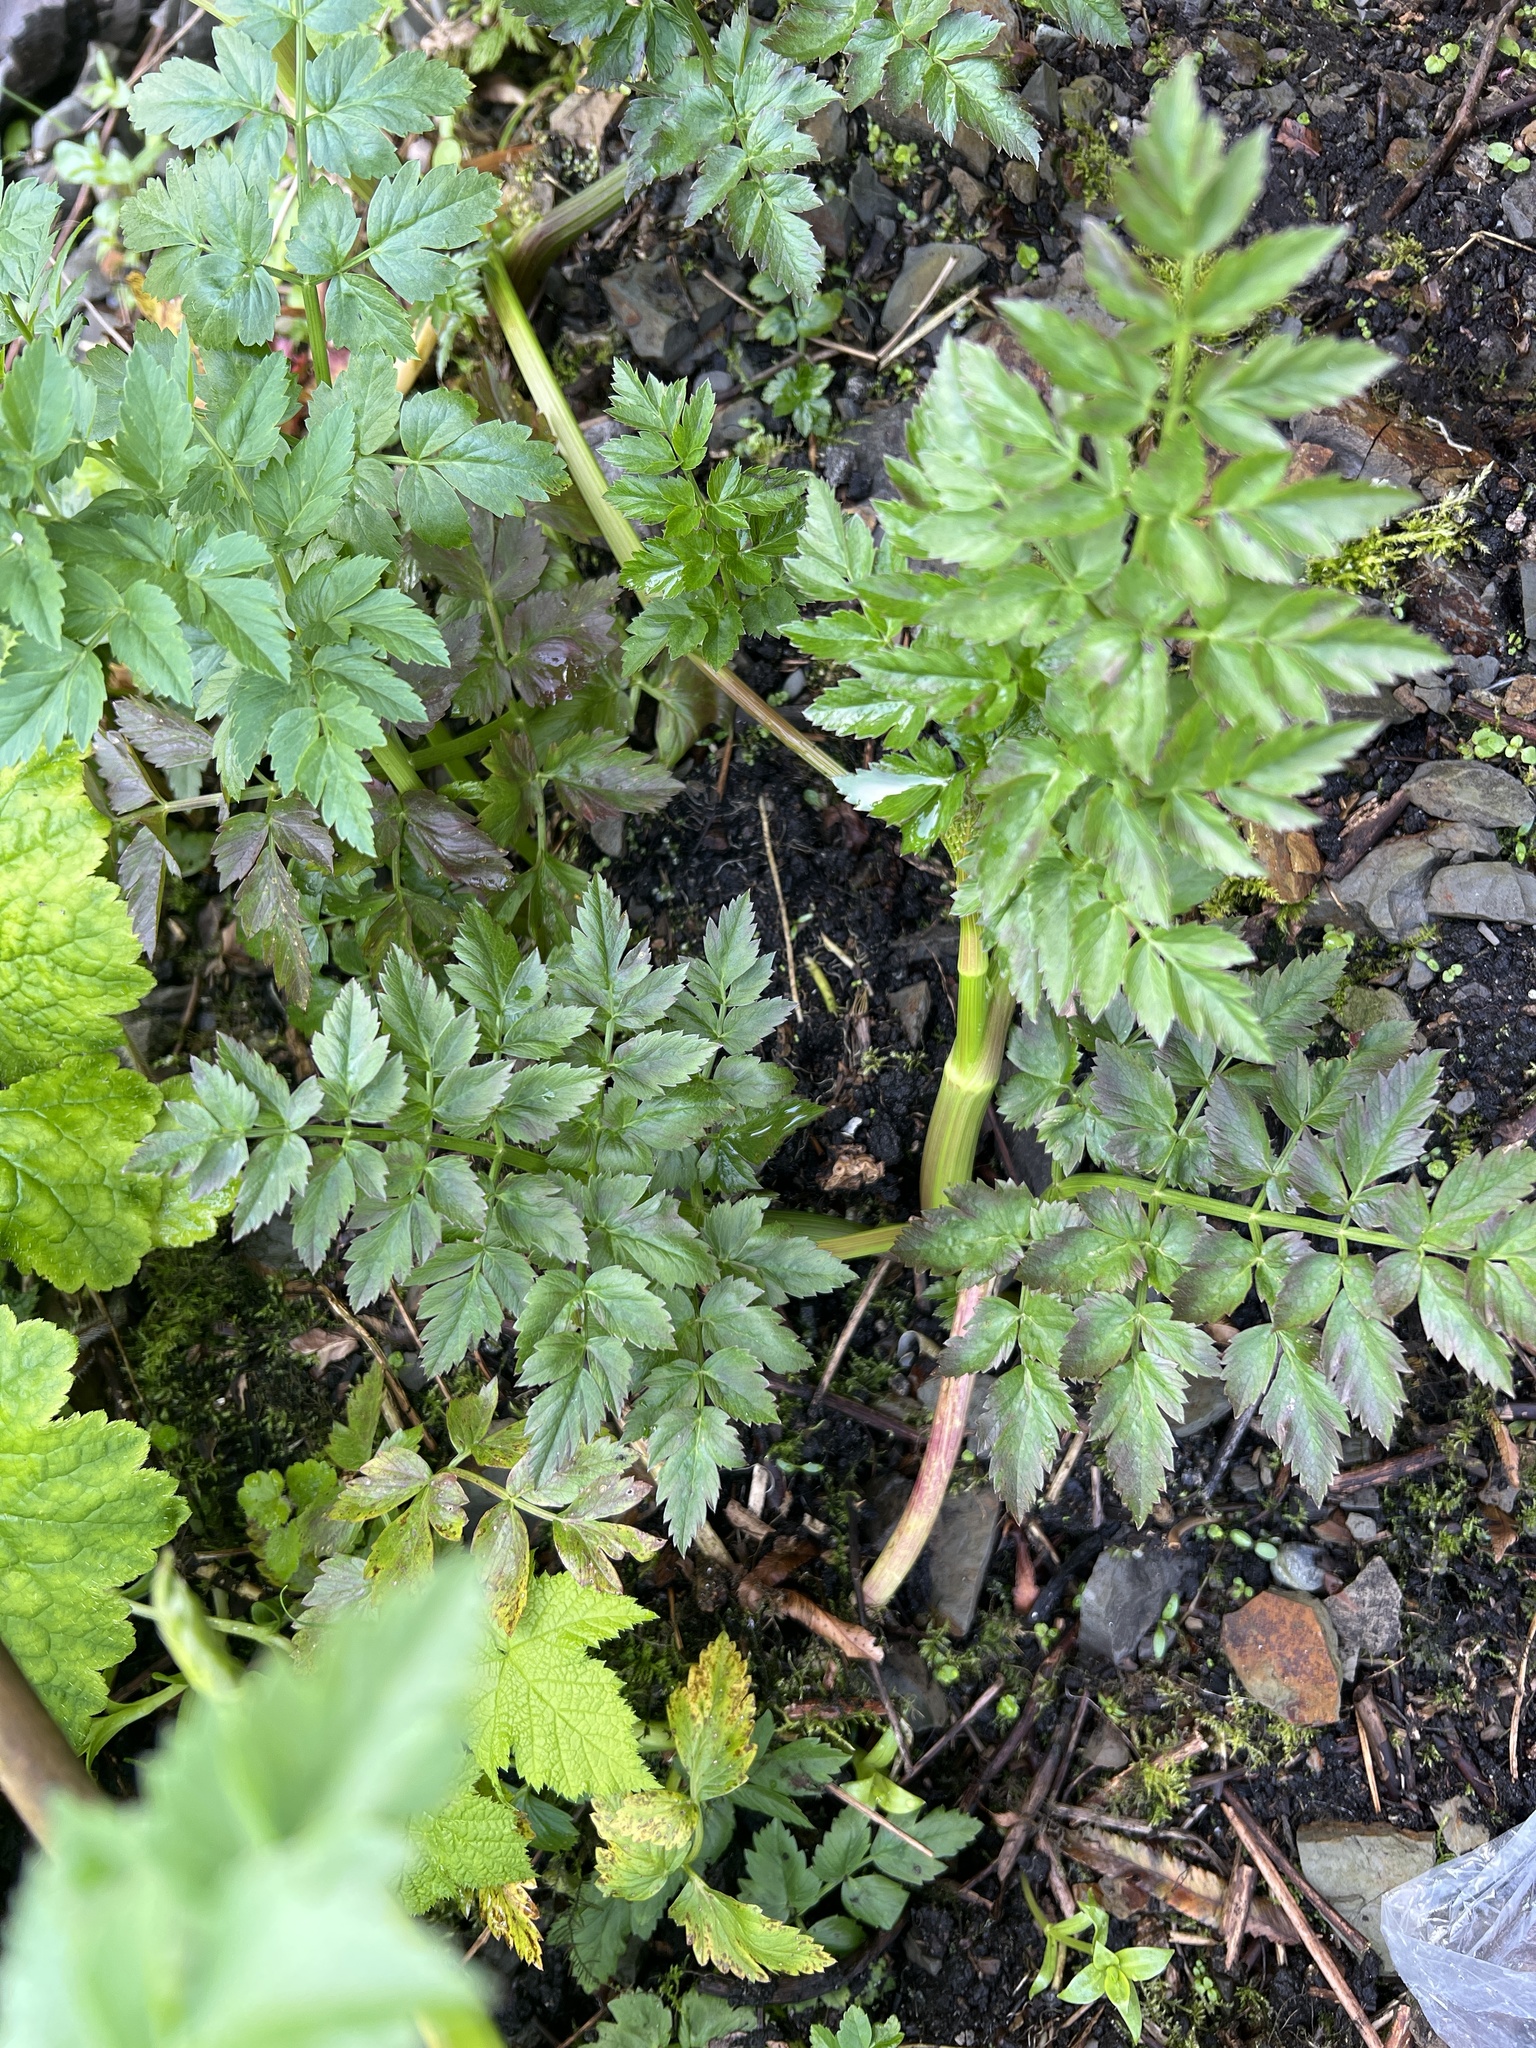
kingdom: Plantae
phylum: Tracheophyta
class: Magnoliopsida
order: Apiales
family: Apiaceae
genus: Oenanthe
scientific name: Oenanthe sarmentosa
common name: American water-parsley
